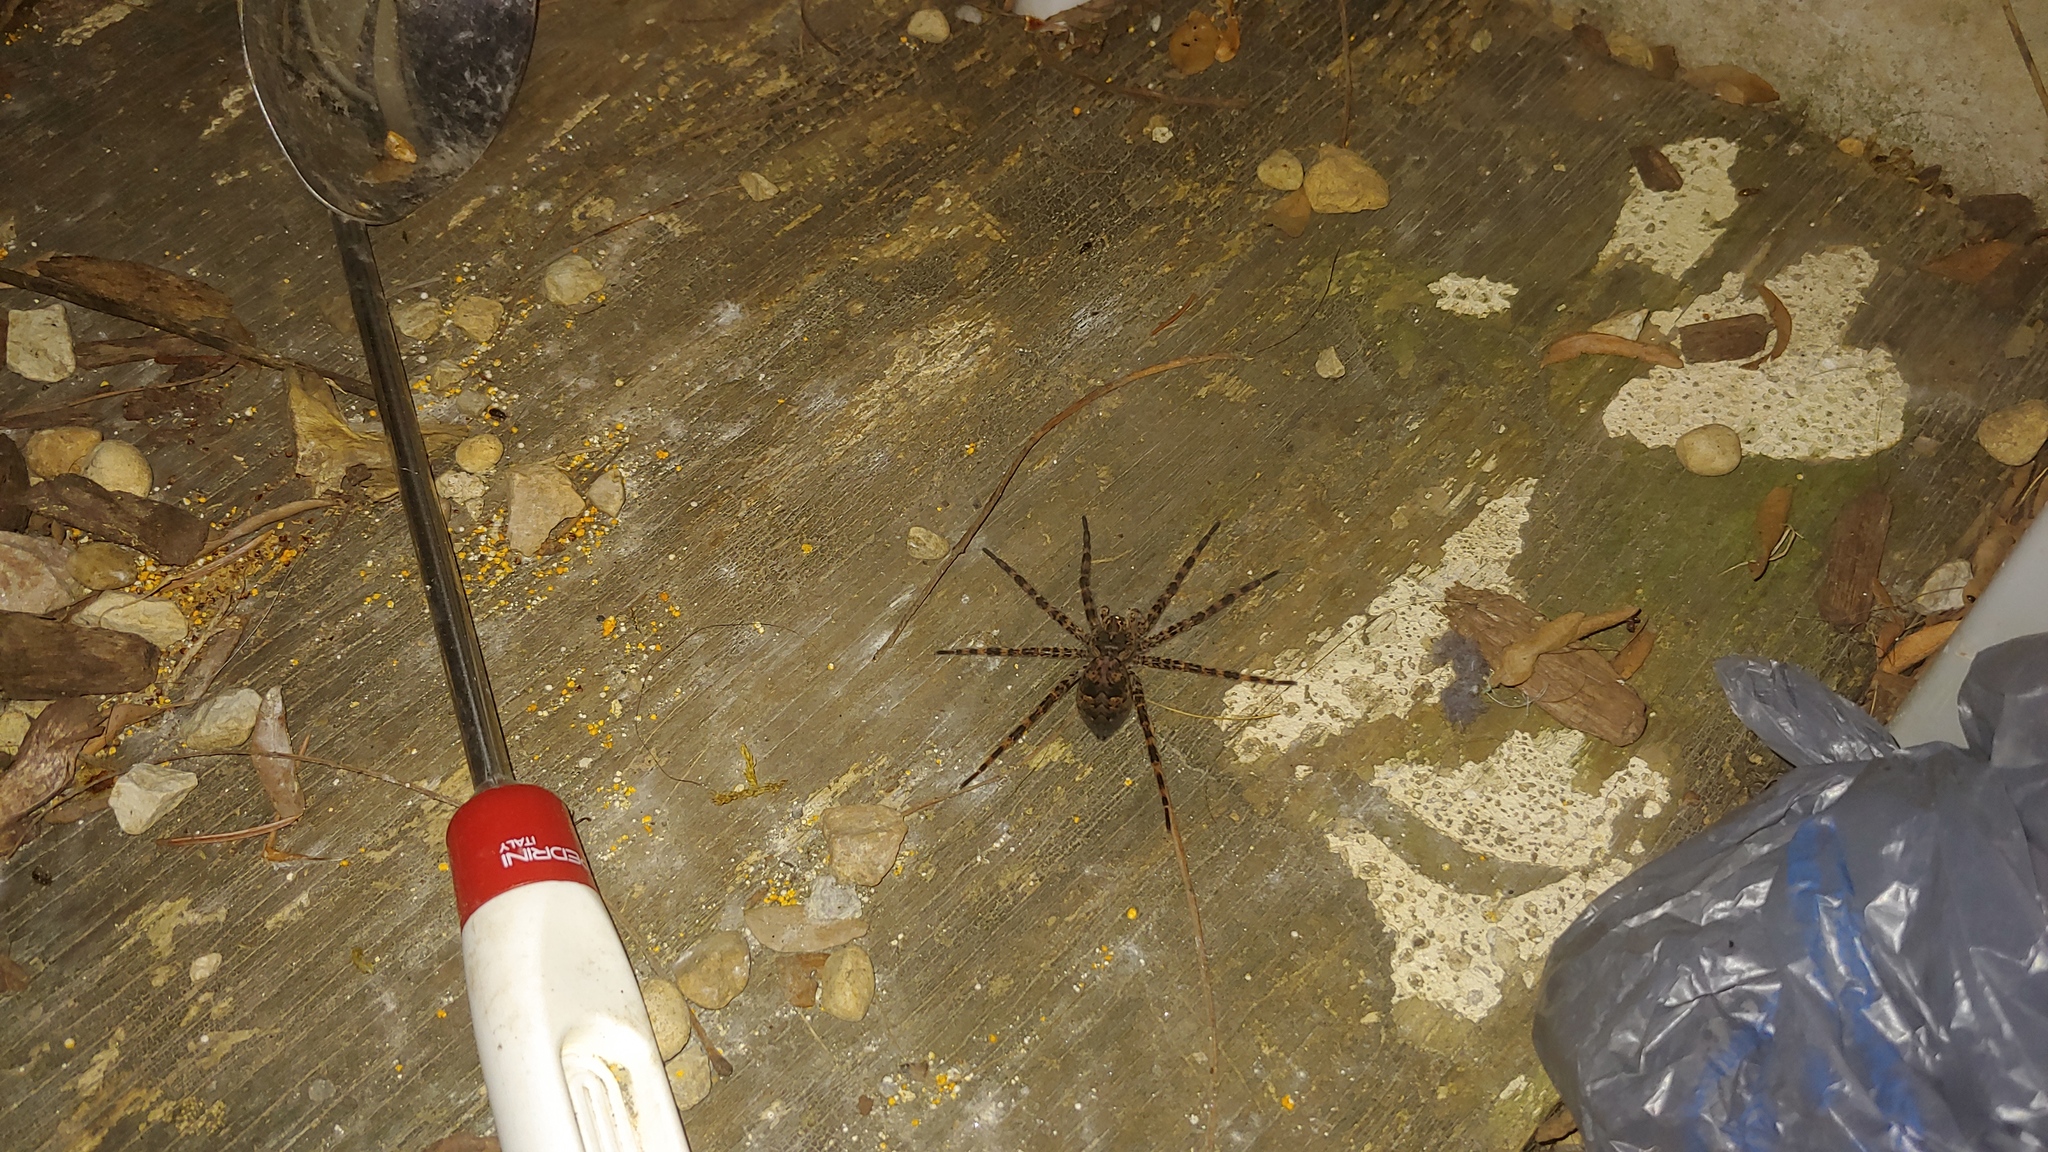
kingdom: Animalia
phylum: Arthropoda
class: Arachnida
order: Araneae
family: Pisauridae
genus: Dolomedes
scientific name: Dolomedes tenebrosus
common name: Dark fishing spider
